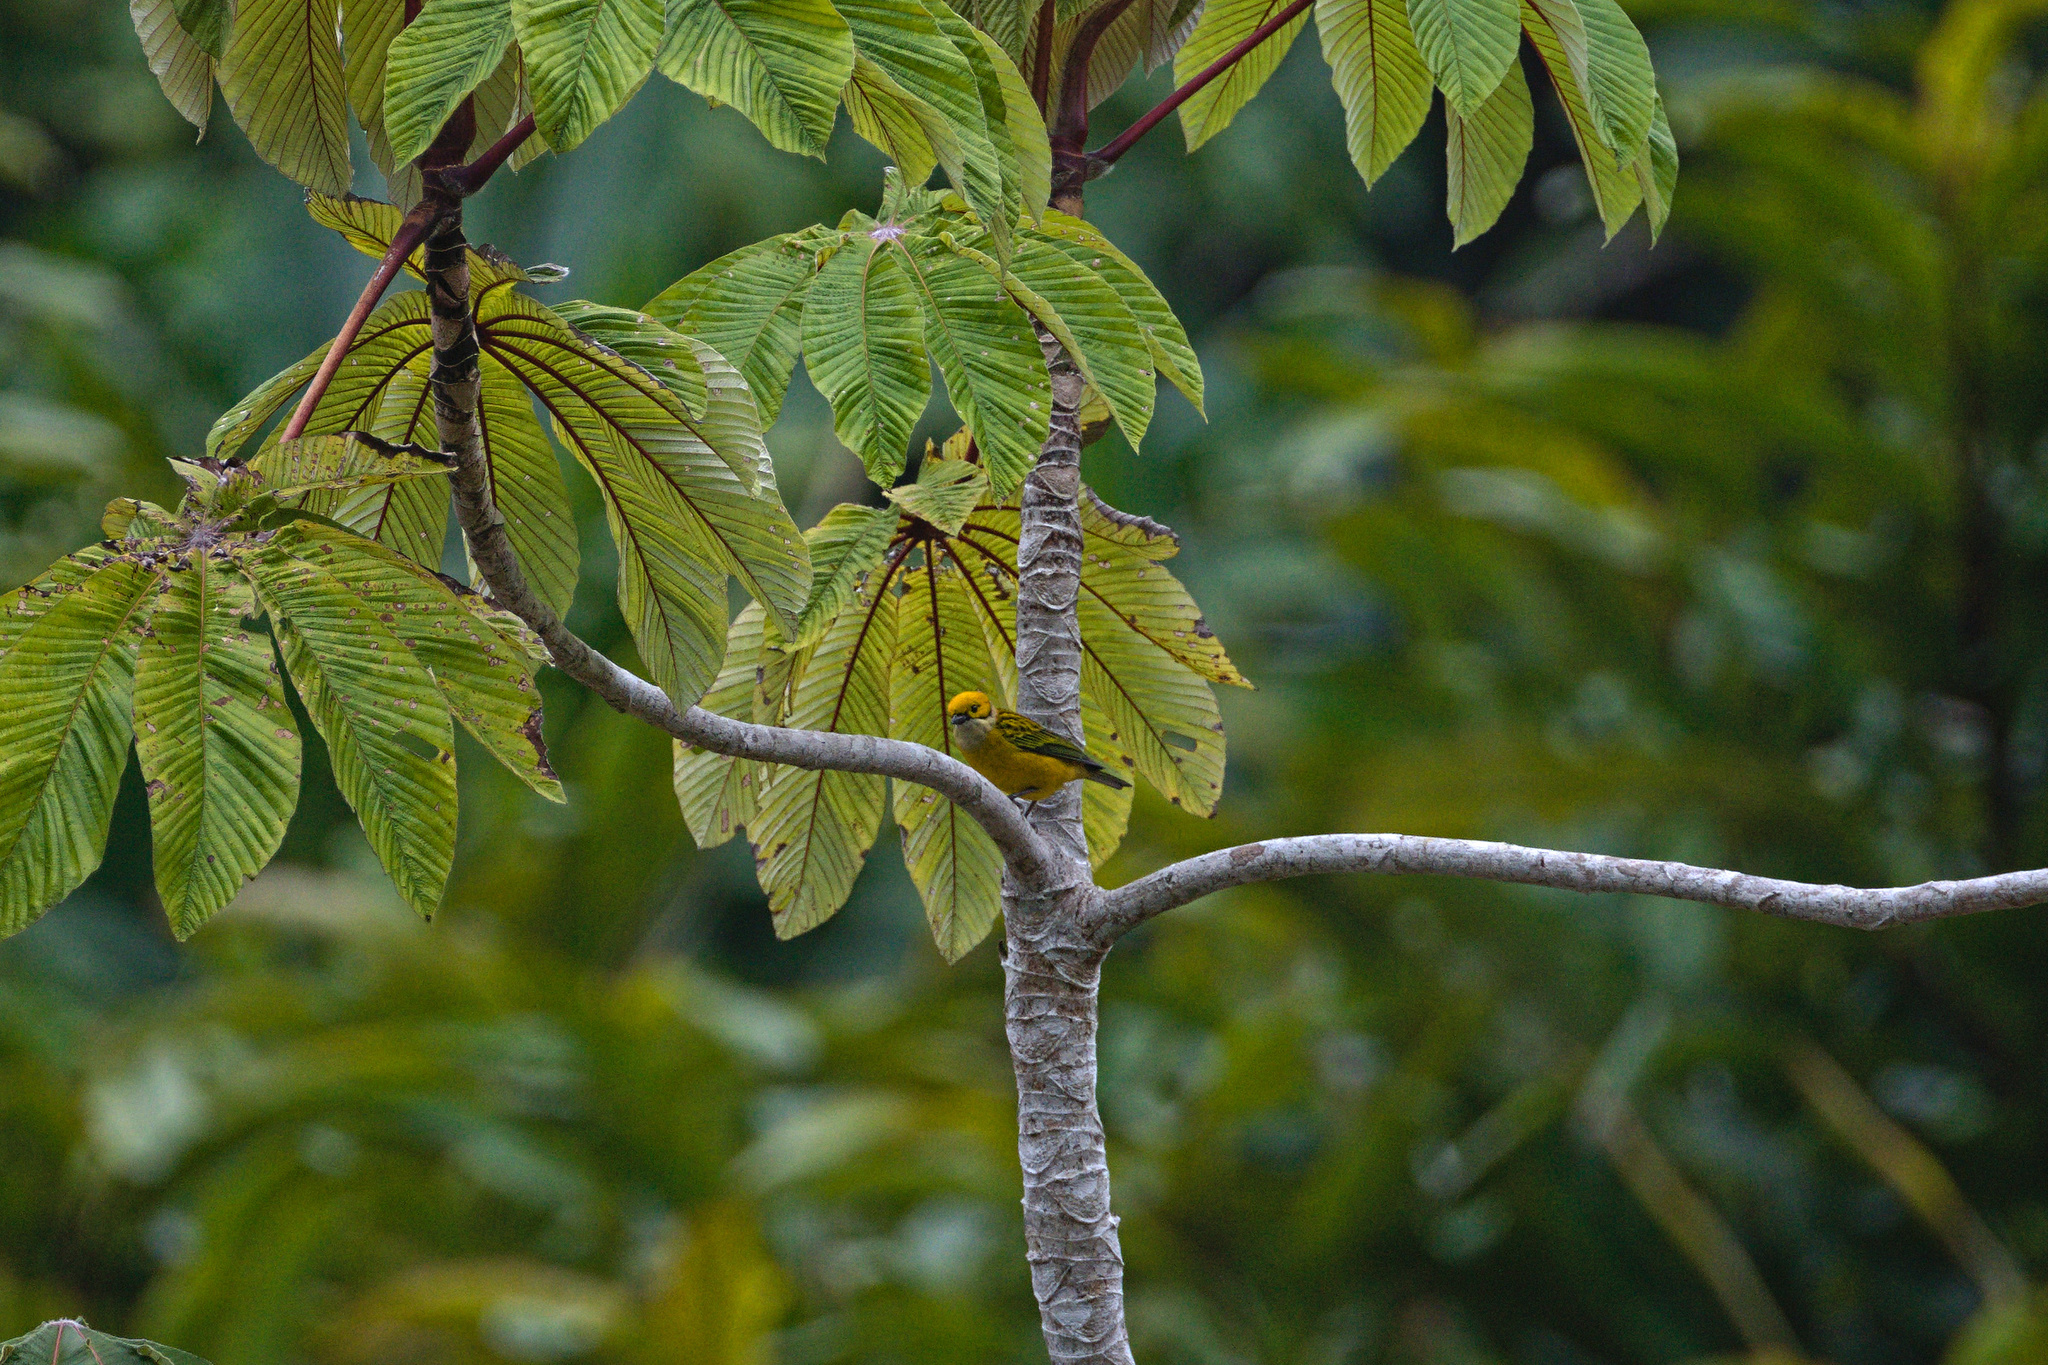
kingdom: Animalia
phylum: Chordata
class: Aves
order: Passeriformes
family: Thraupidae
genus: Tangara
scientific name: Tangara icterocephala
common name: Silver-throated tanager
